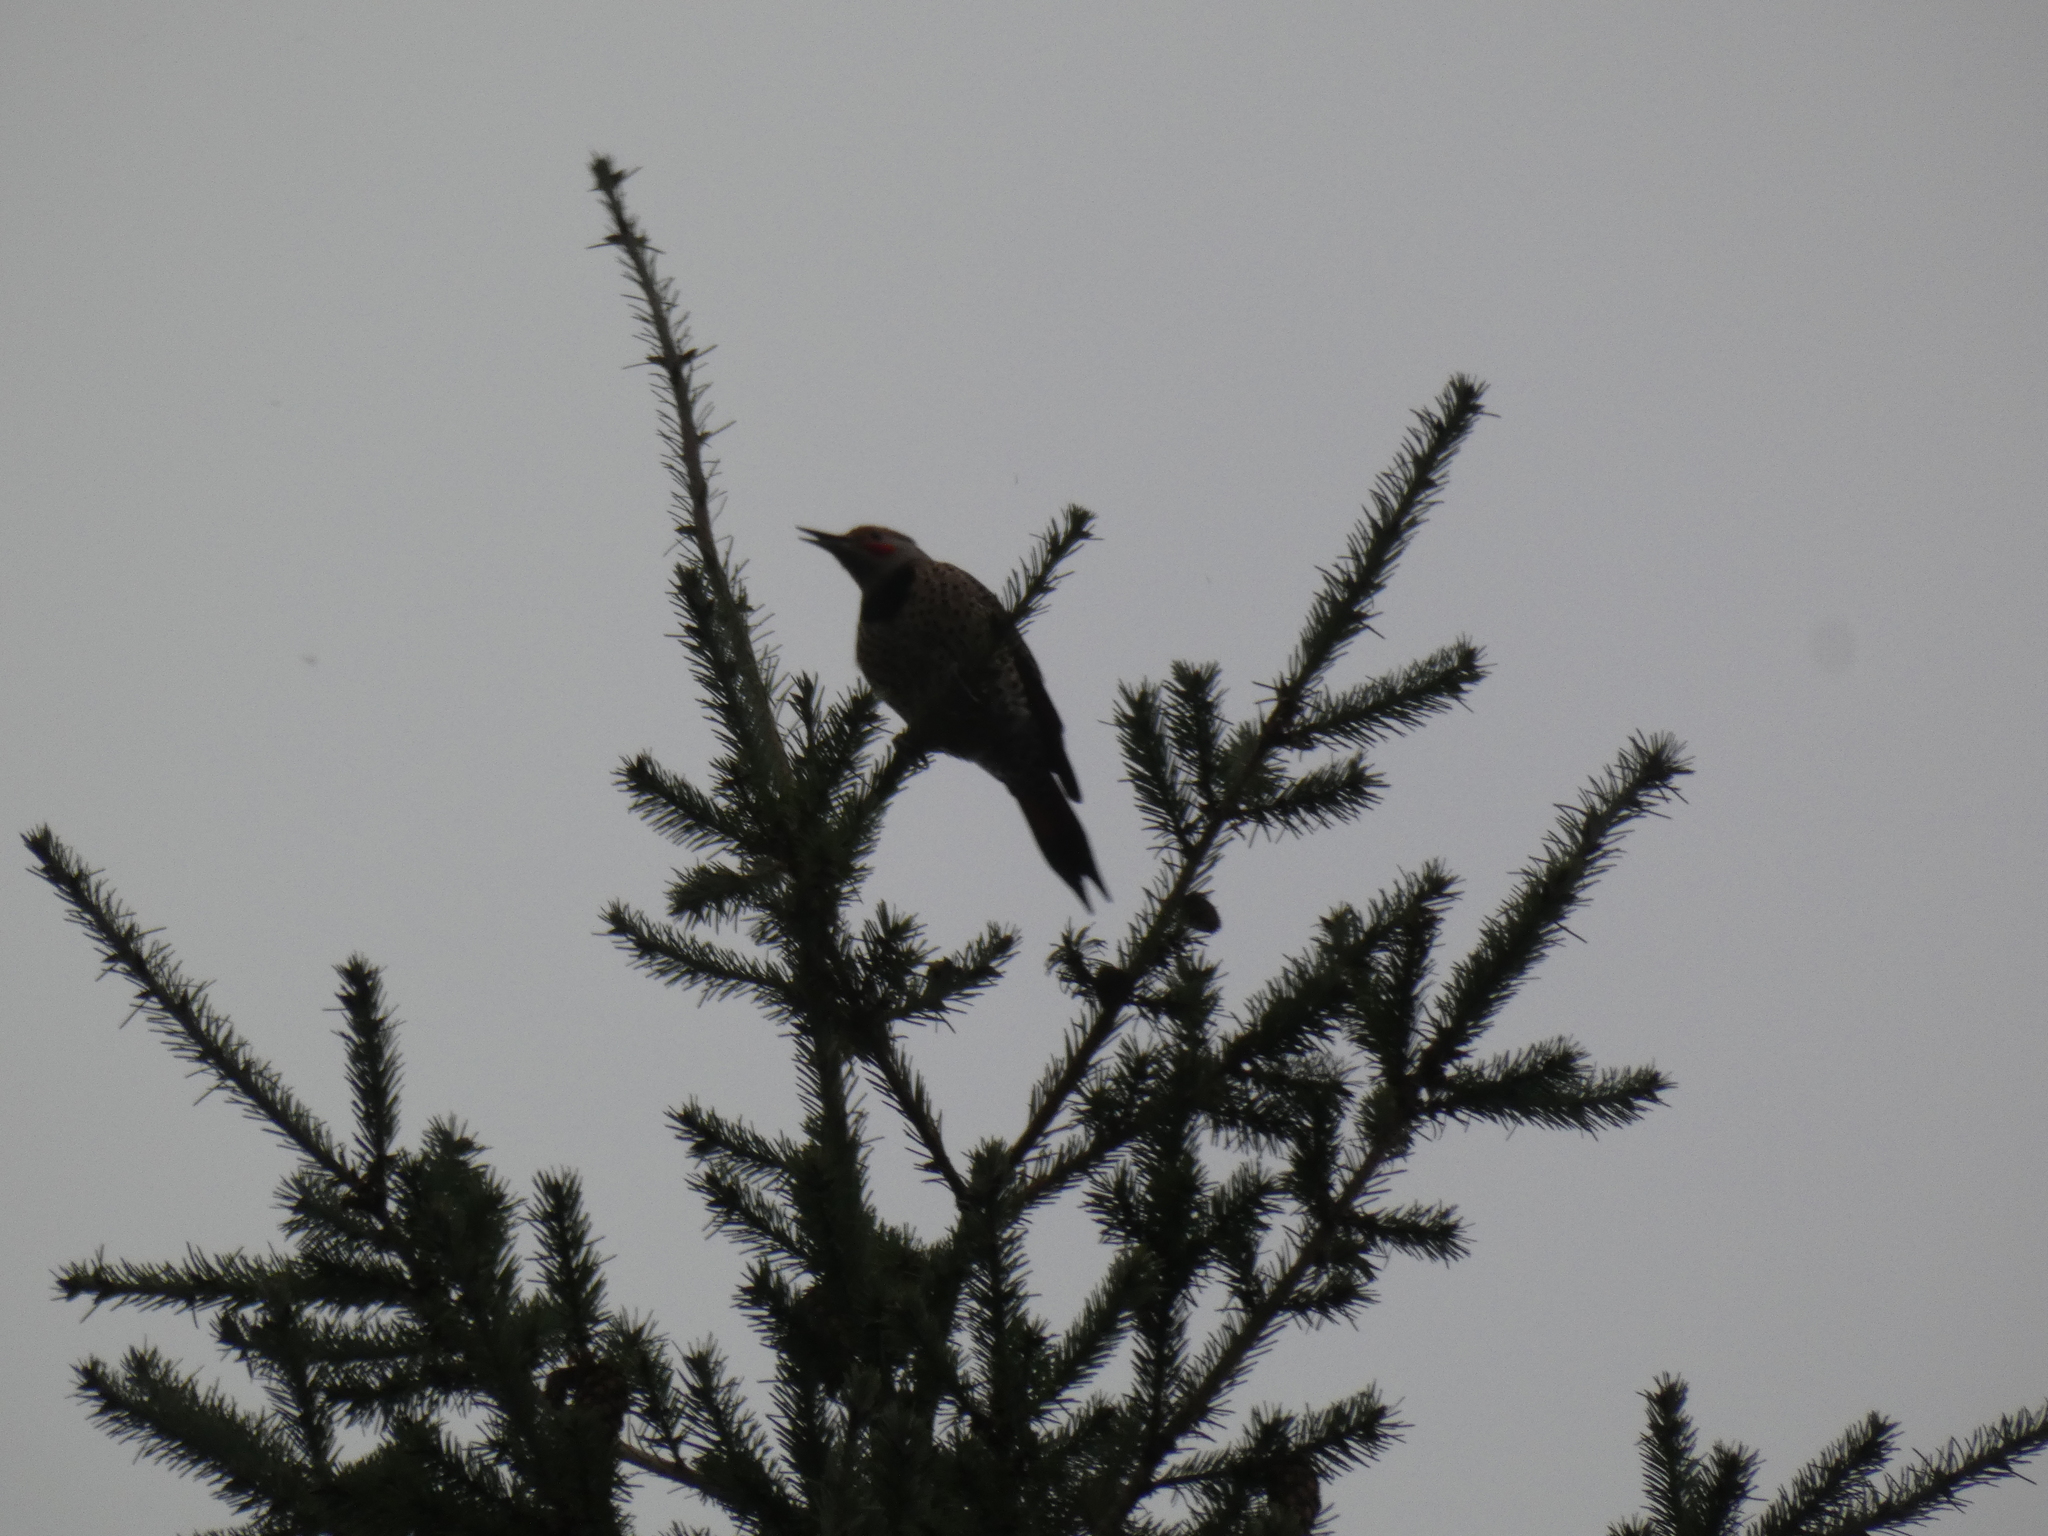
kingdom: Animalia
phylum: Chordata
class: Aves
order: Piciformes
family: Picidae
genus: Colaptes
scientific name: Colaptes auratus
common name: Northern flicker
